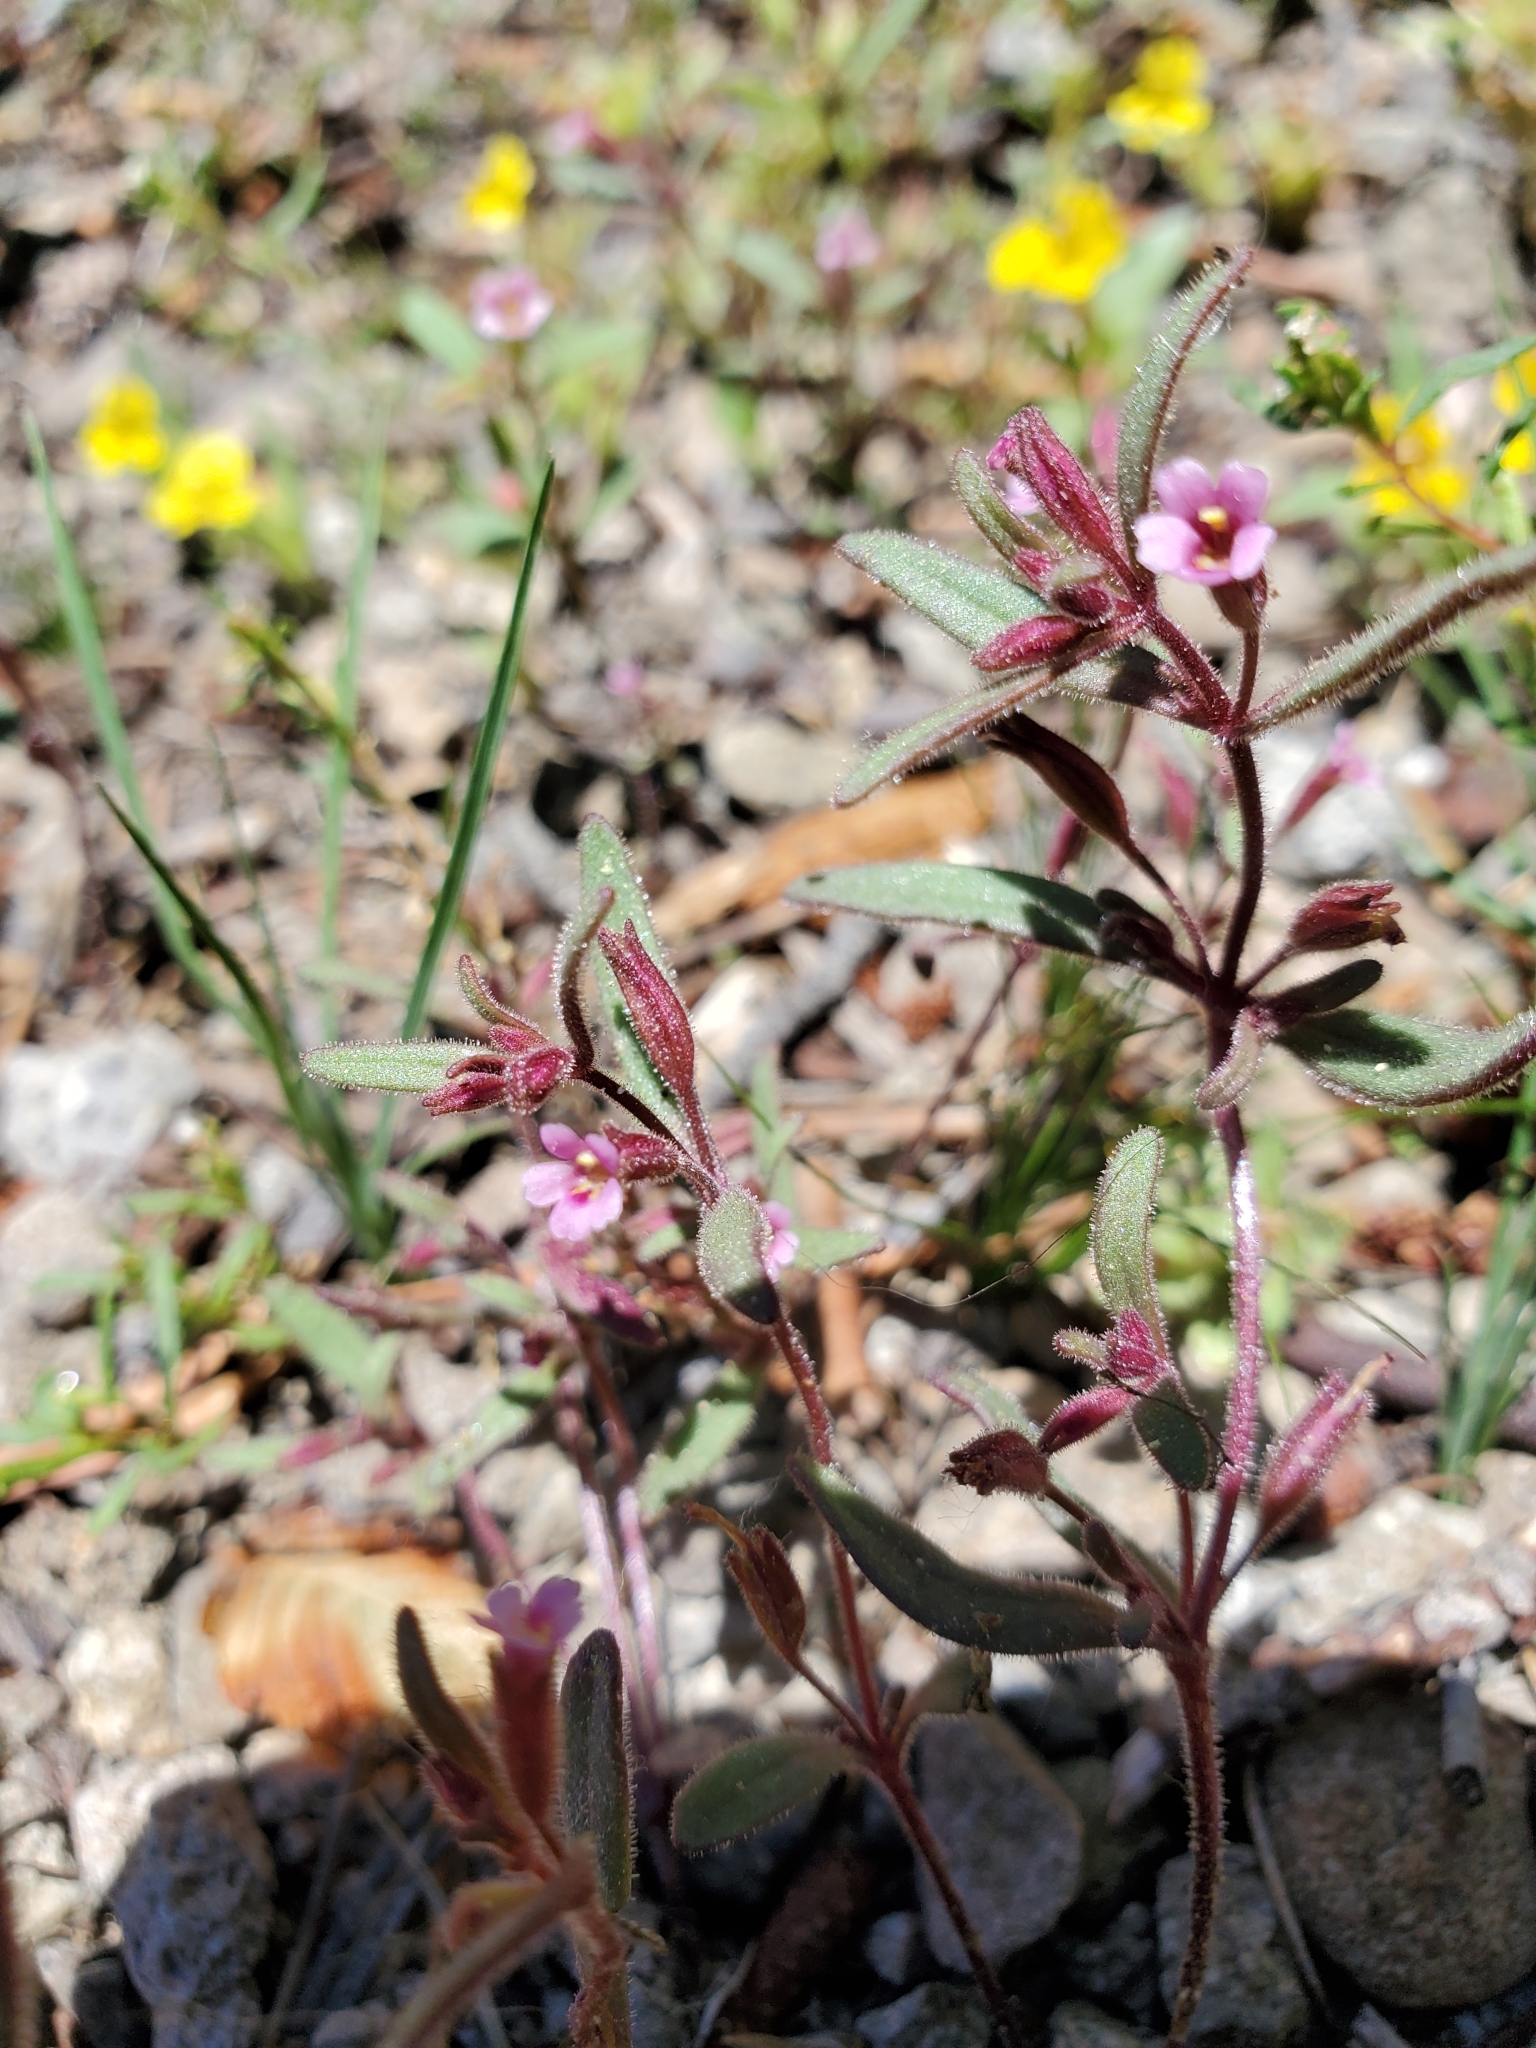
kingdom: Plantae
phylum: Tracheophyta
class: Magnoliopsida
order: Lamiales
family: Phrymaceae
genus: Erythranthe
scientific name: Erythranthe breweri
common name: Brewer's monkeyflower
